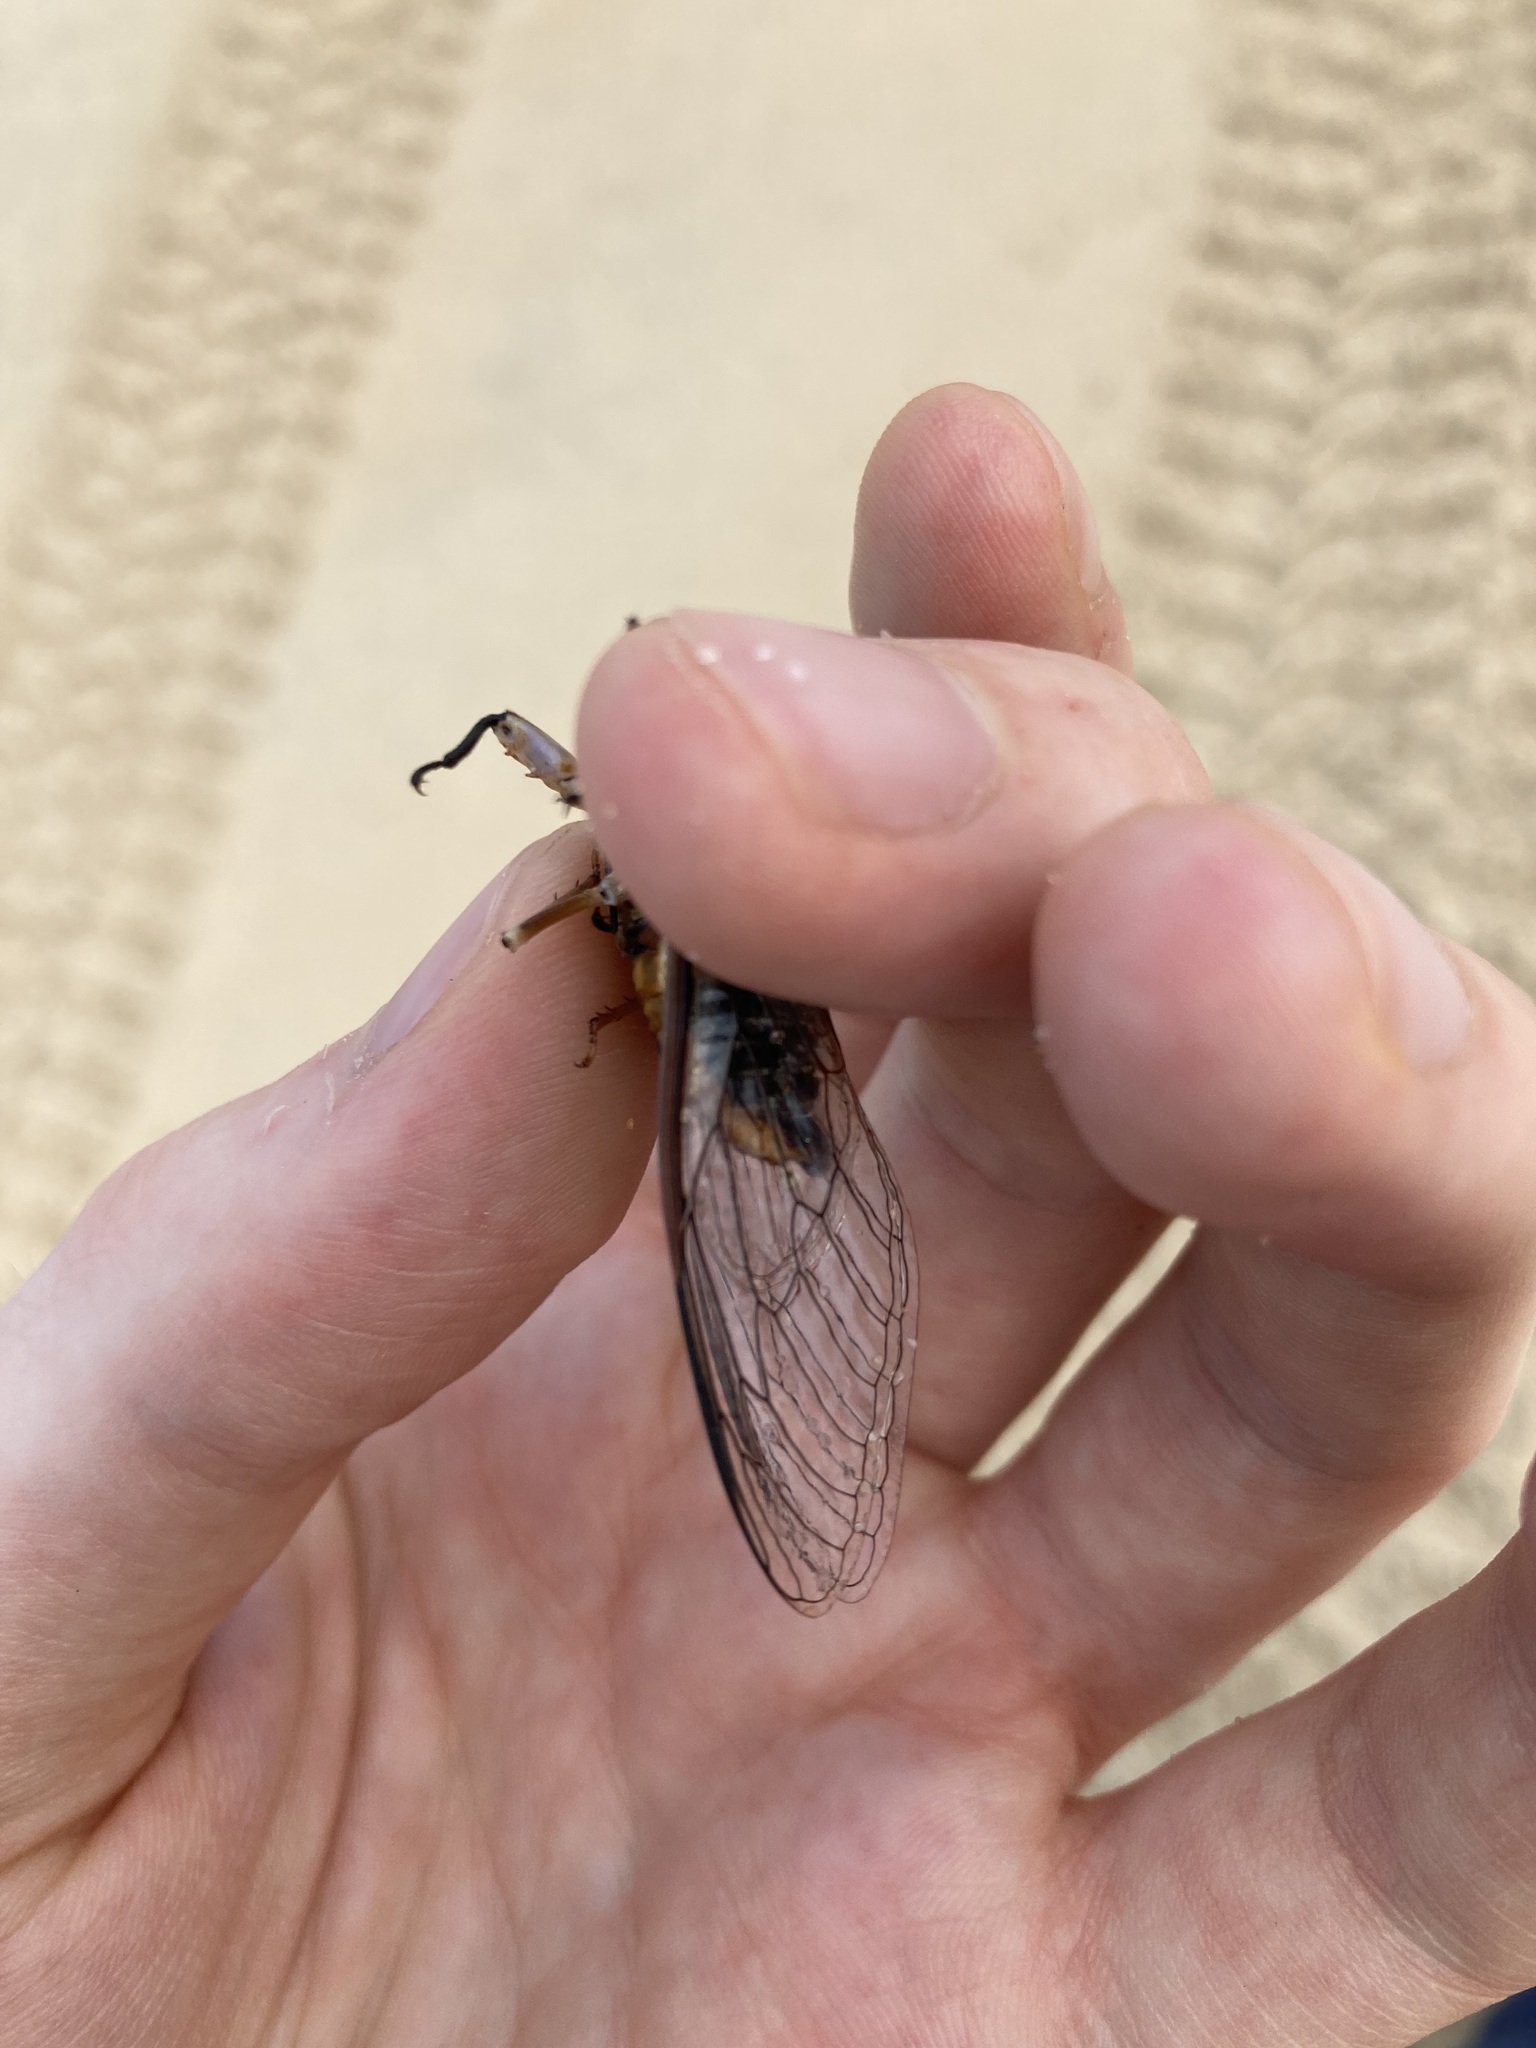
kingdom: Animalia
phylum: Arthropoda
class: Insecta
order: Hemiptera
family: Cicadidae
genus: Psaltoda
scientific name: Psaltoda harrisii
